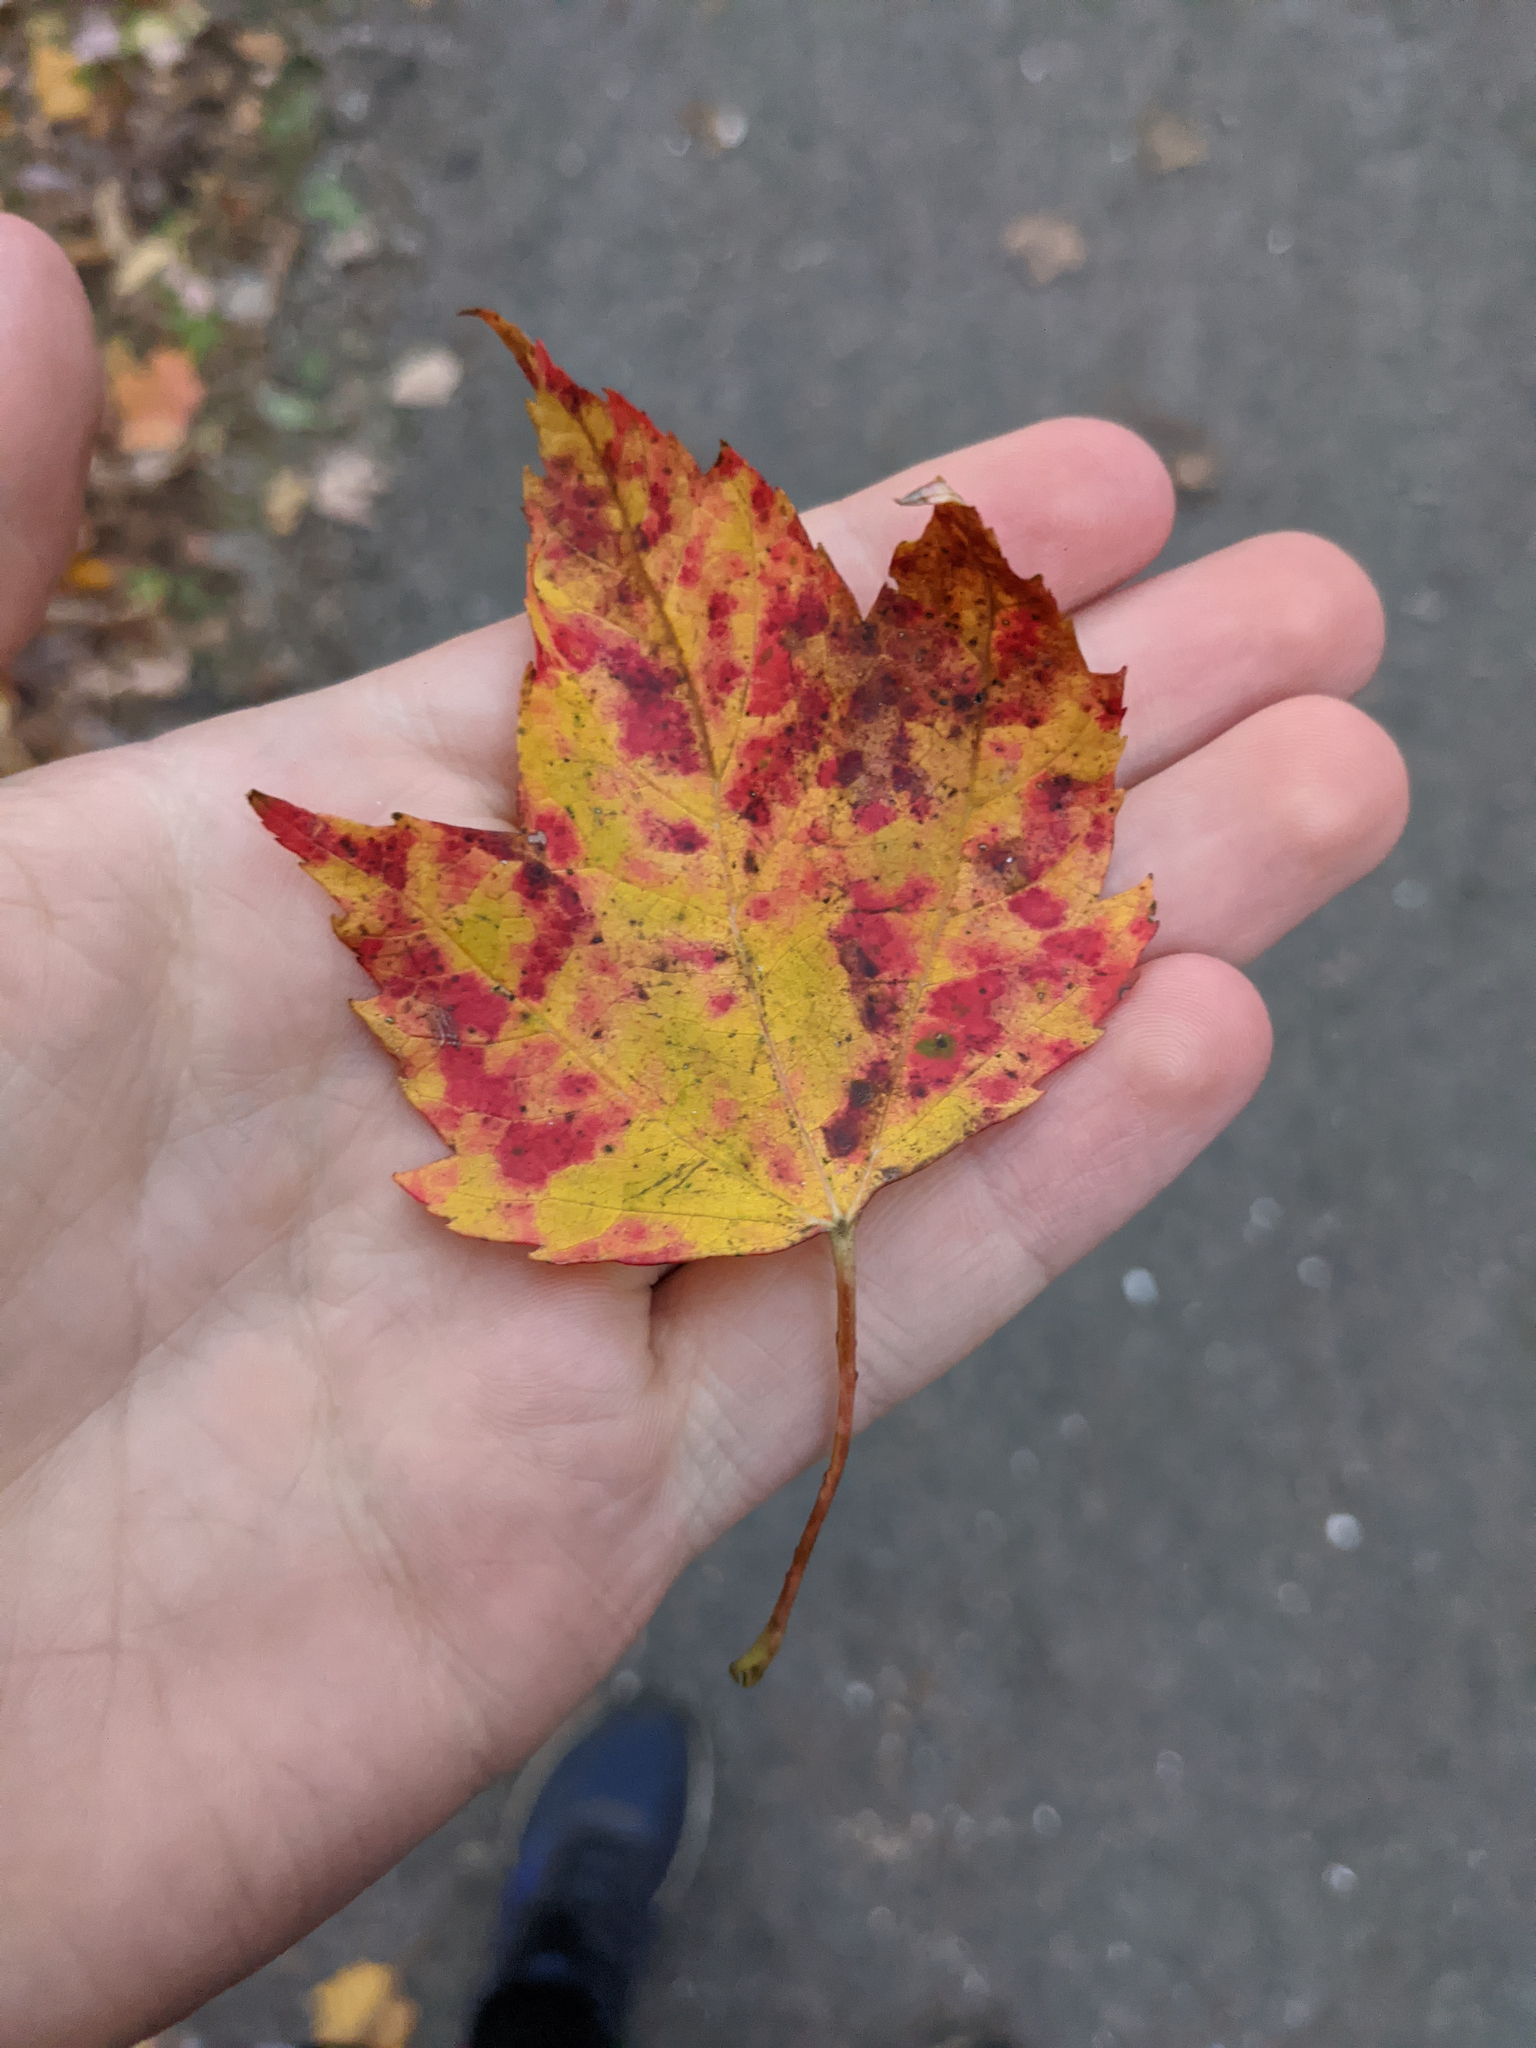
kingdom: Plantae
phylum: Tracheophyta
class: Magnoliopsida
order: Sapindales
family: Sapindaceae
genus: Acer
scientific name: Acer rubrum
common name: Red maple
